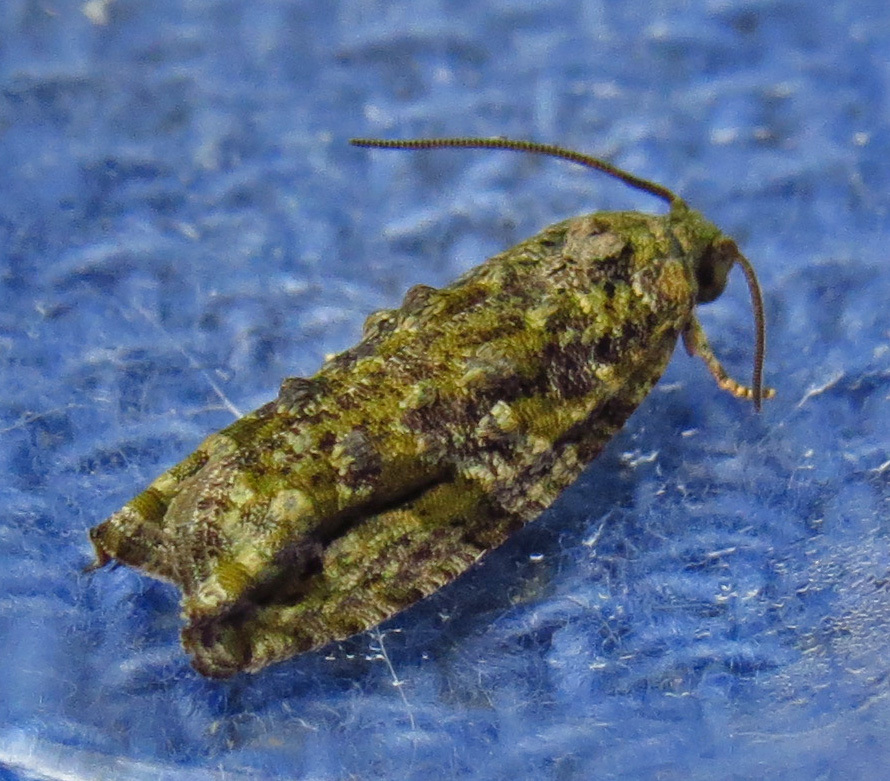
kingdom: Animalia
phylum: Arthropoda
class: Insecta
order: Lepidoptera
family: Tortricidae
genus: Proteoteras
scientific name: Proteoteras aesculana
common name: Maple twig borer moth
